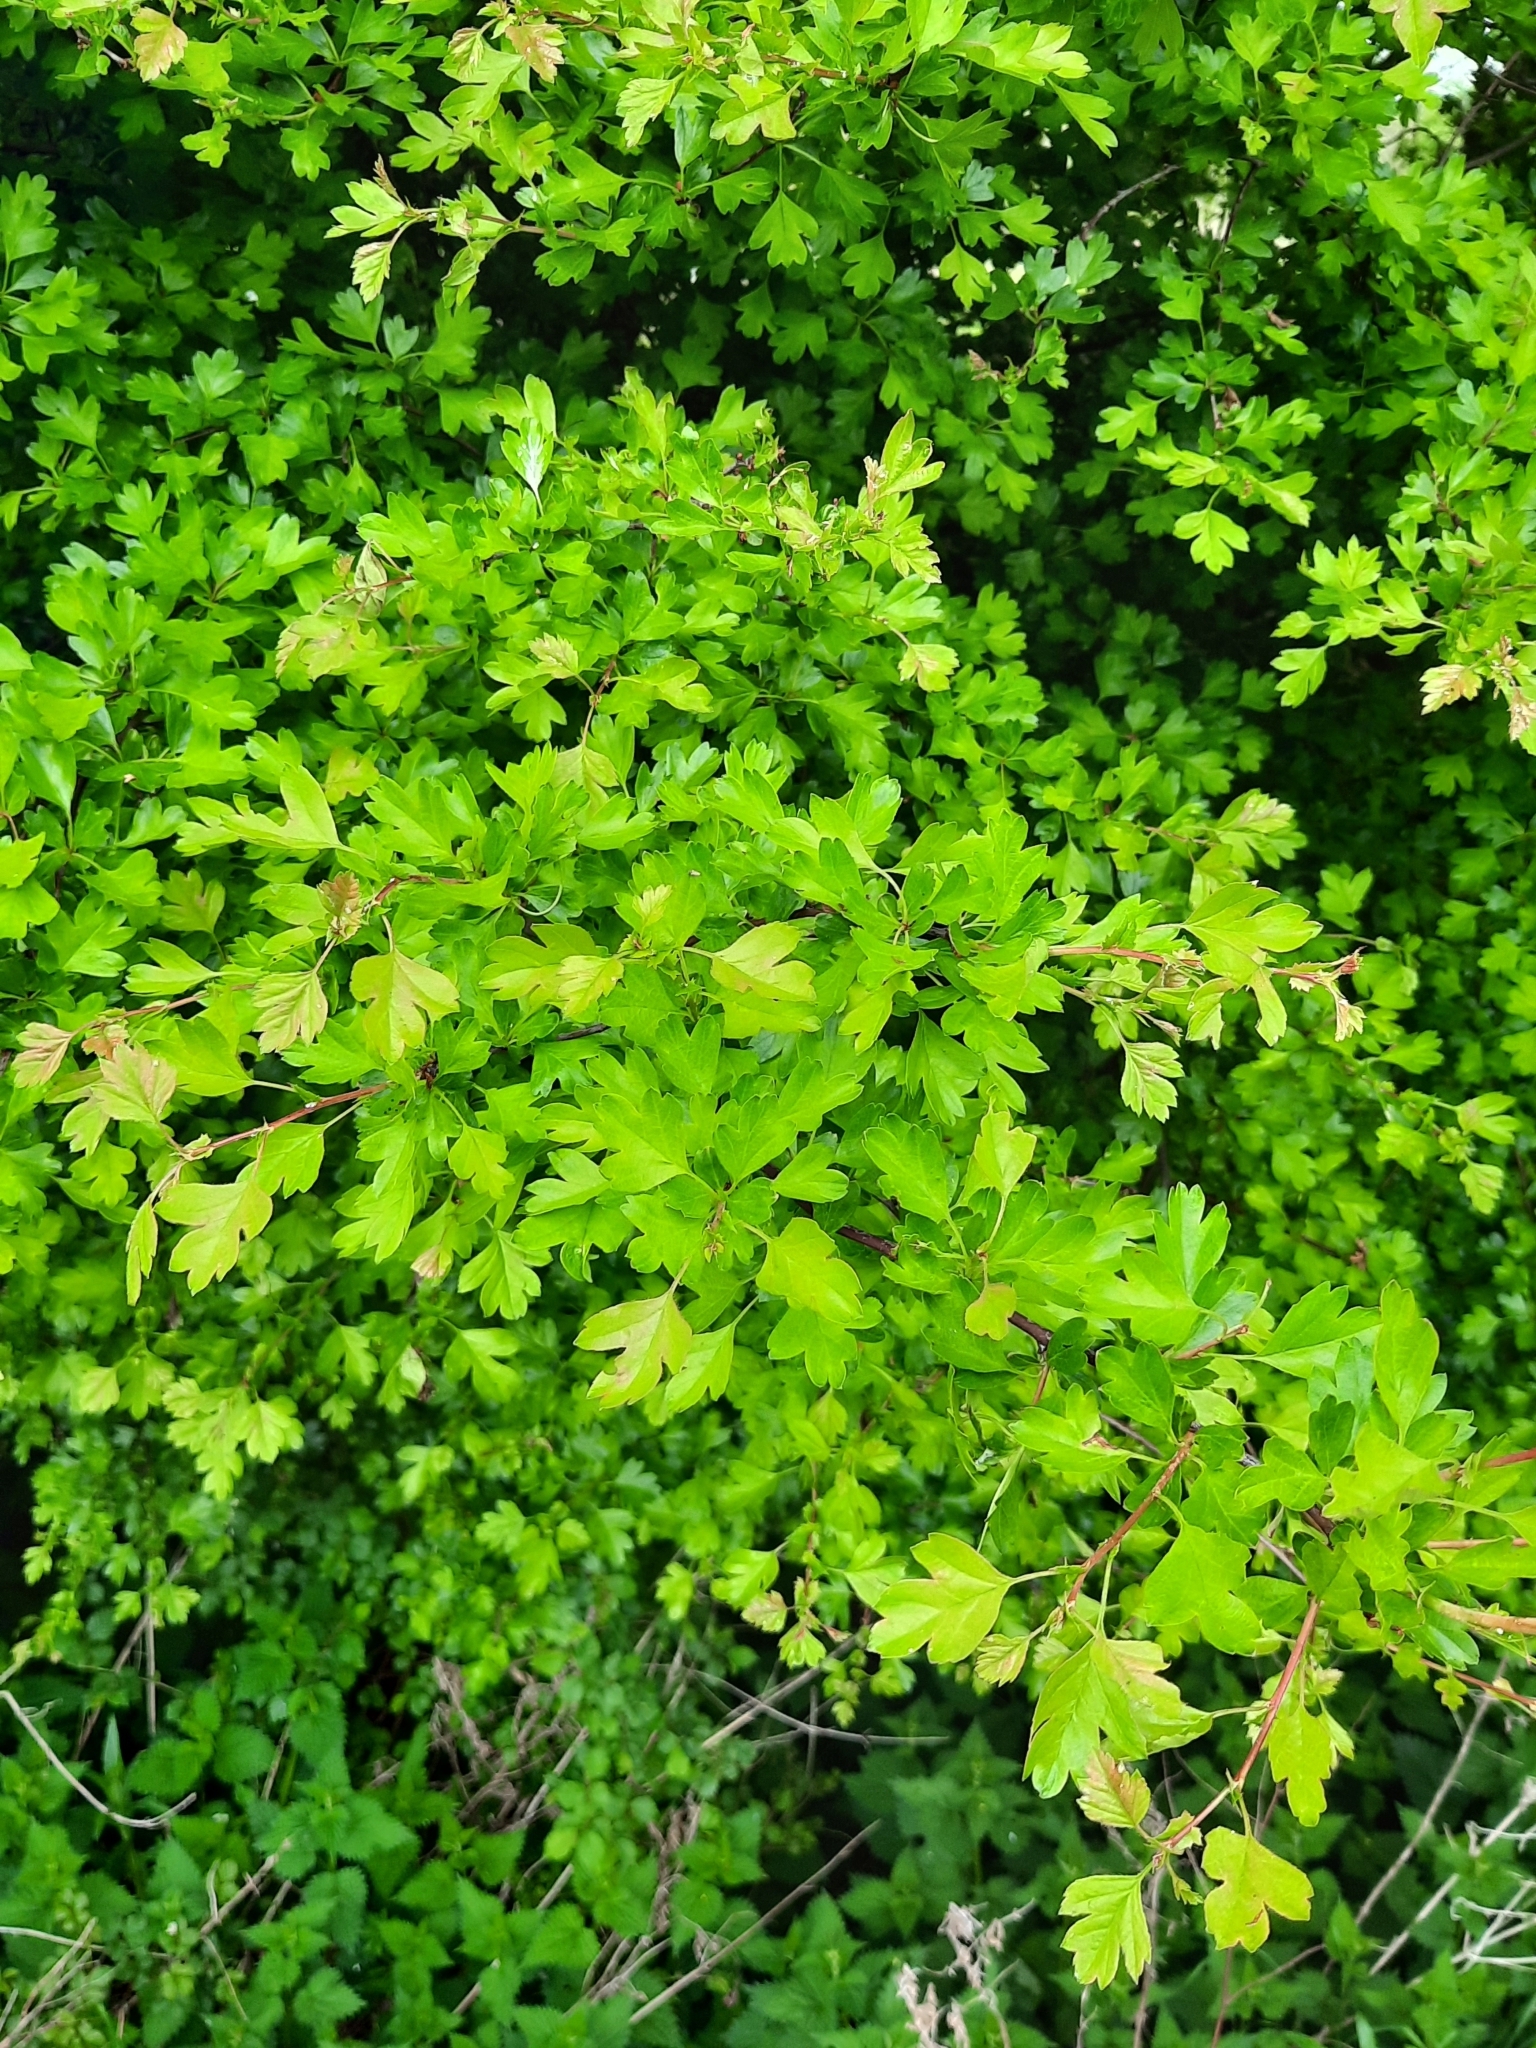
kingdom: Plantae
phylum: Tracheophyta
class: Magnoliopsida
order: Rosales
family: Rosaceae
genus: Crataegus
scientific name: Crataegus monogyna
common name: Hawthorn
